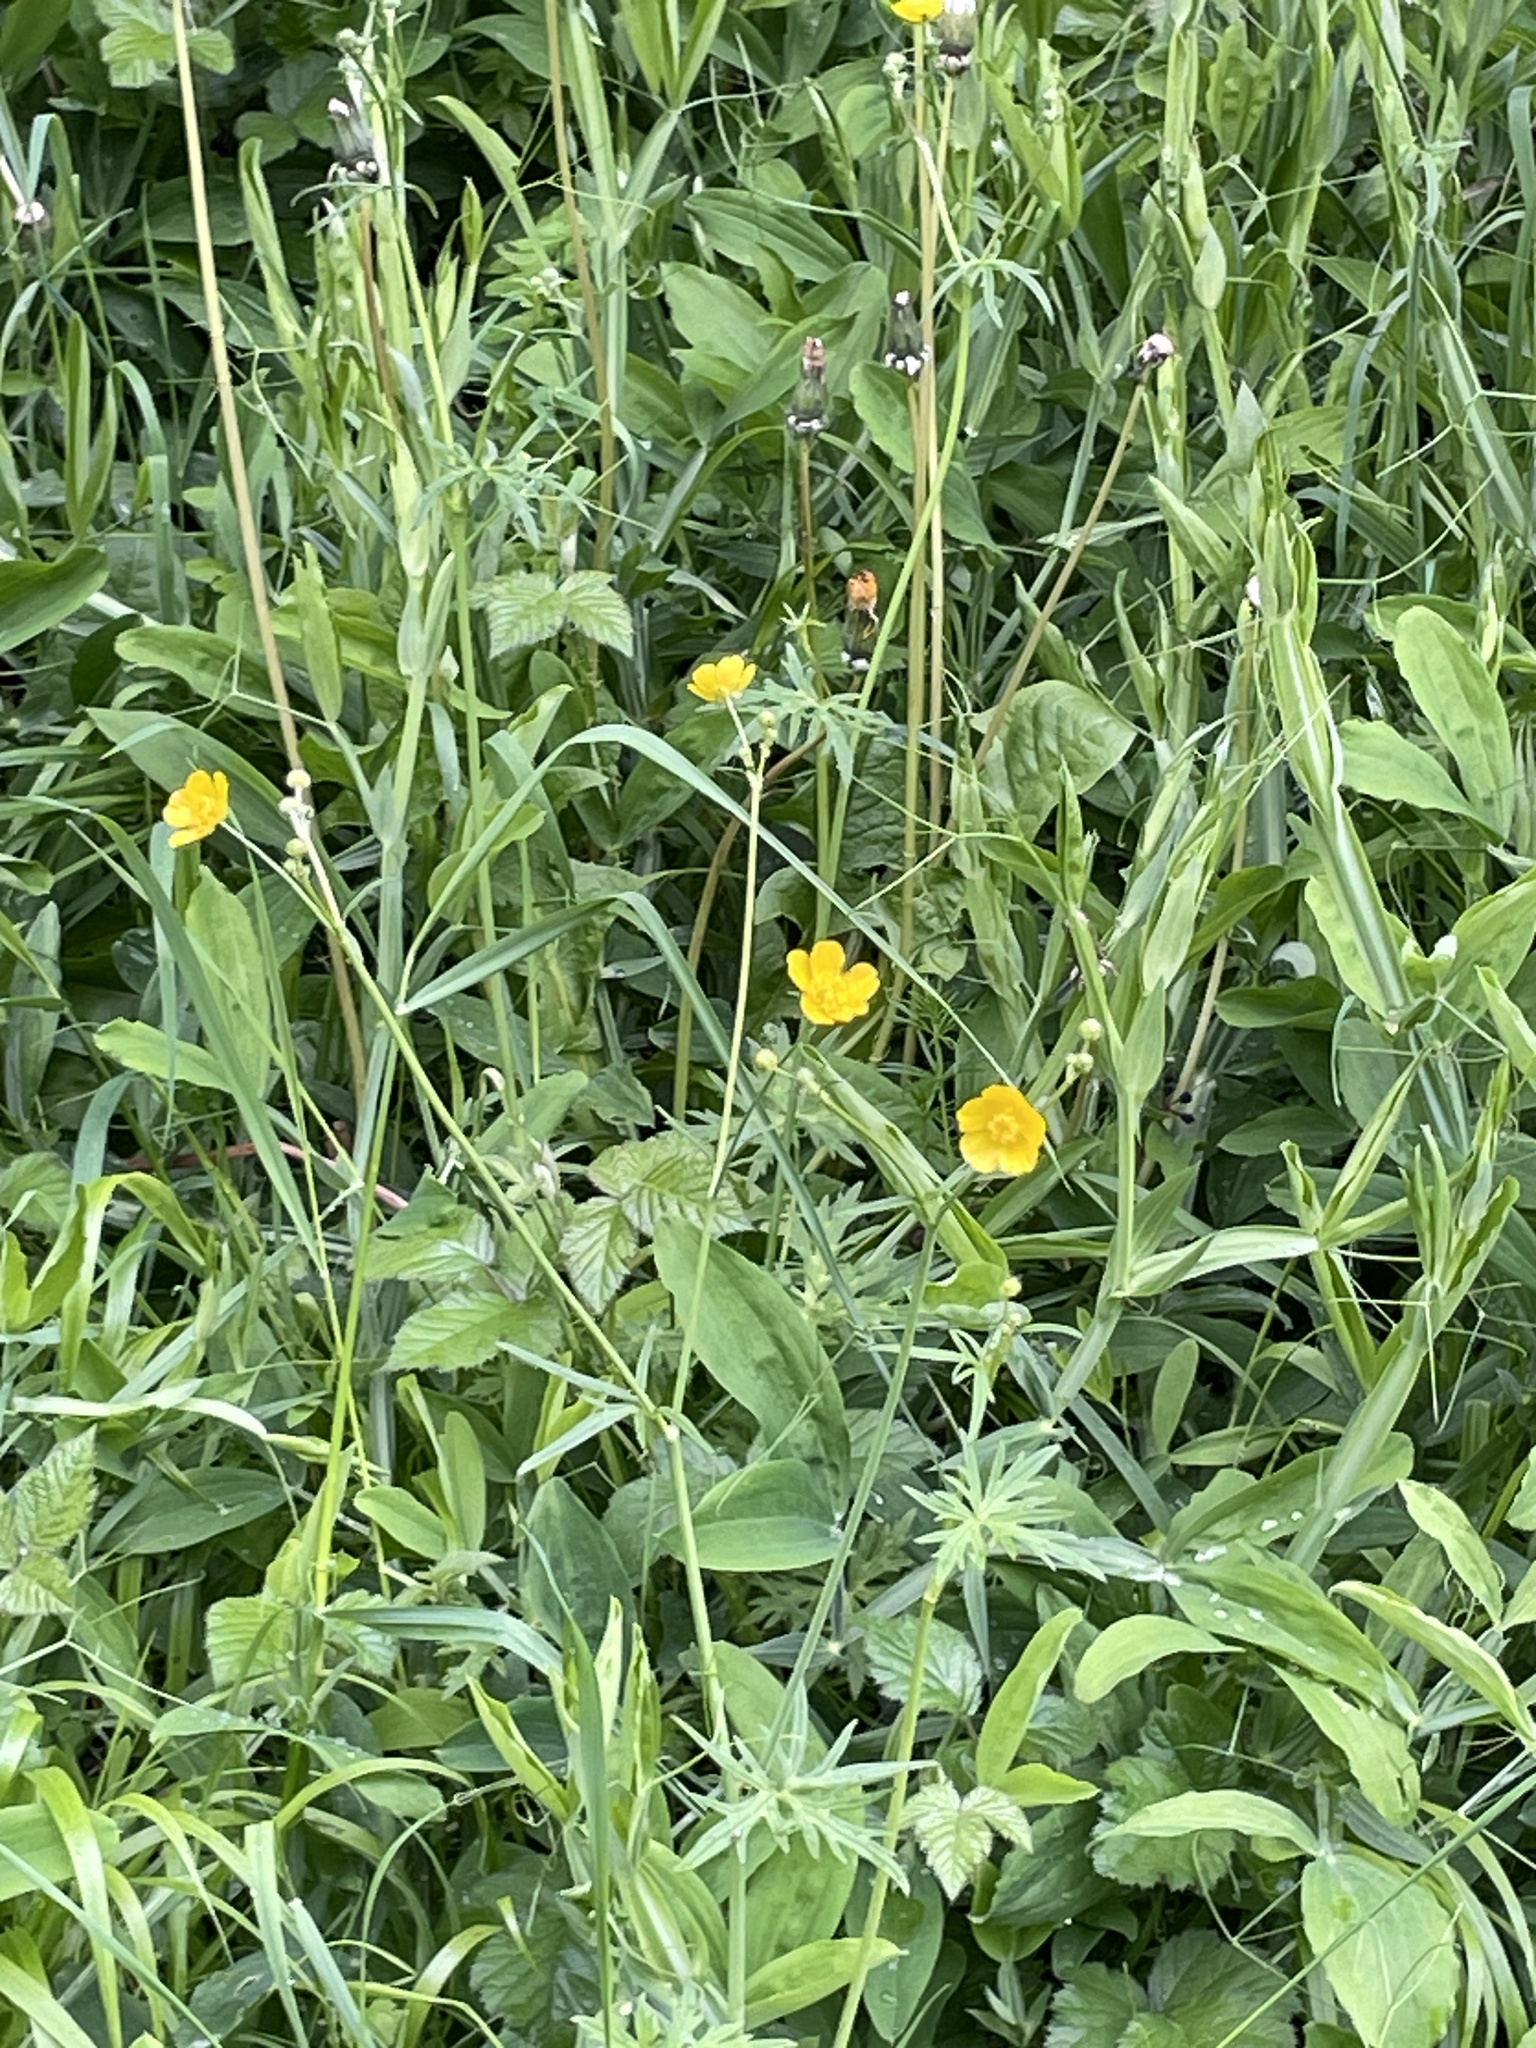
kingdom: Plantae
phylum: Tracheophyta
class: Magnoliopsida
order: Ranunculales
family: Ranunculaceae
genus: Ranunculus
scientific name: Ranunculus acris
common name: Meadow buttercup
